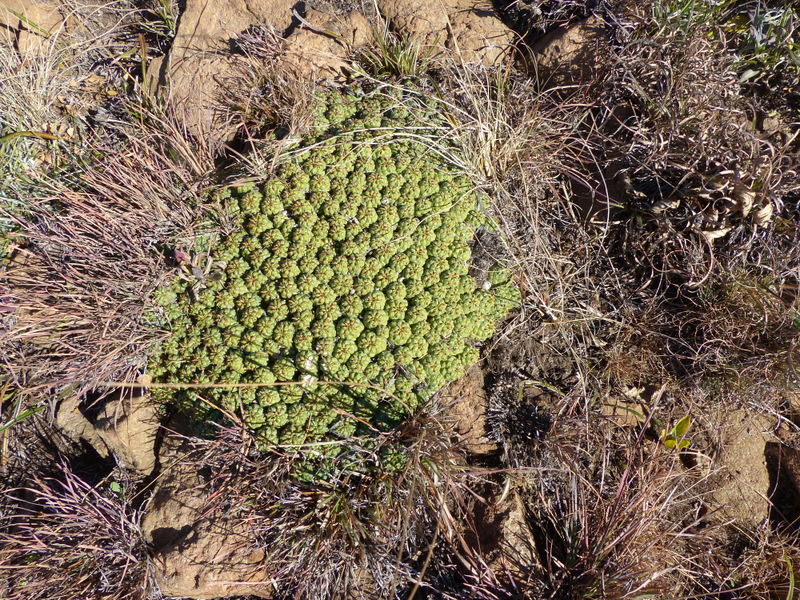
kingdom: Plantae
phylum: Tracheophyta
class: Magnoliopsida
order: Malpighiales
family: Euphorbiaceae
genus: Euphorbia
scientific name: Euphorbia clavarioides
